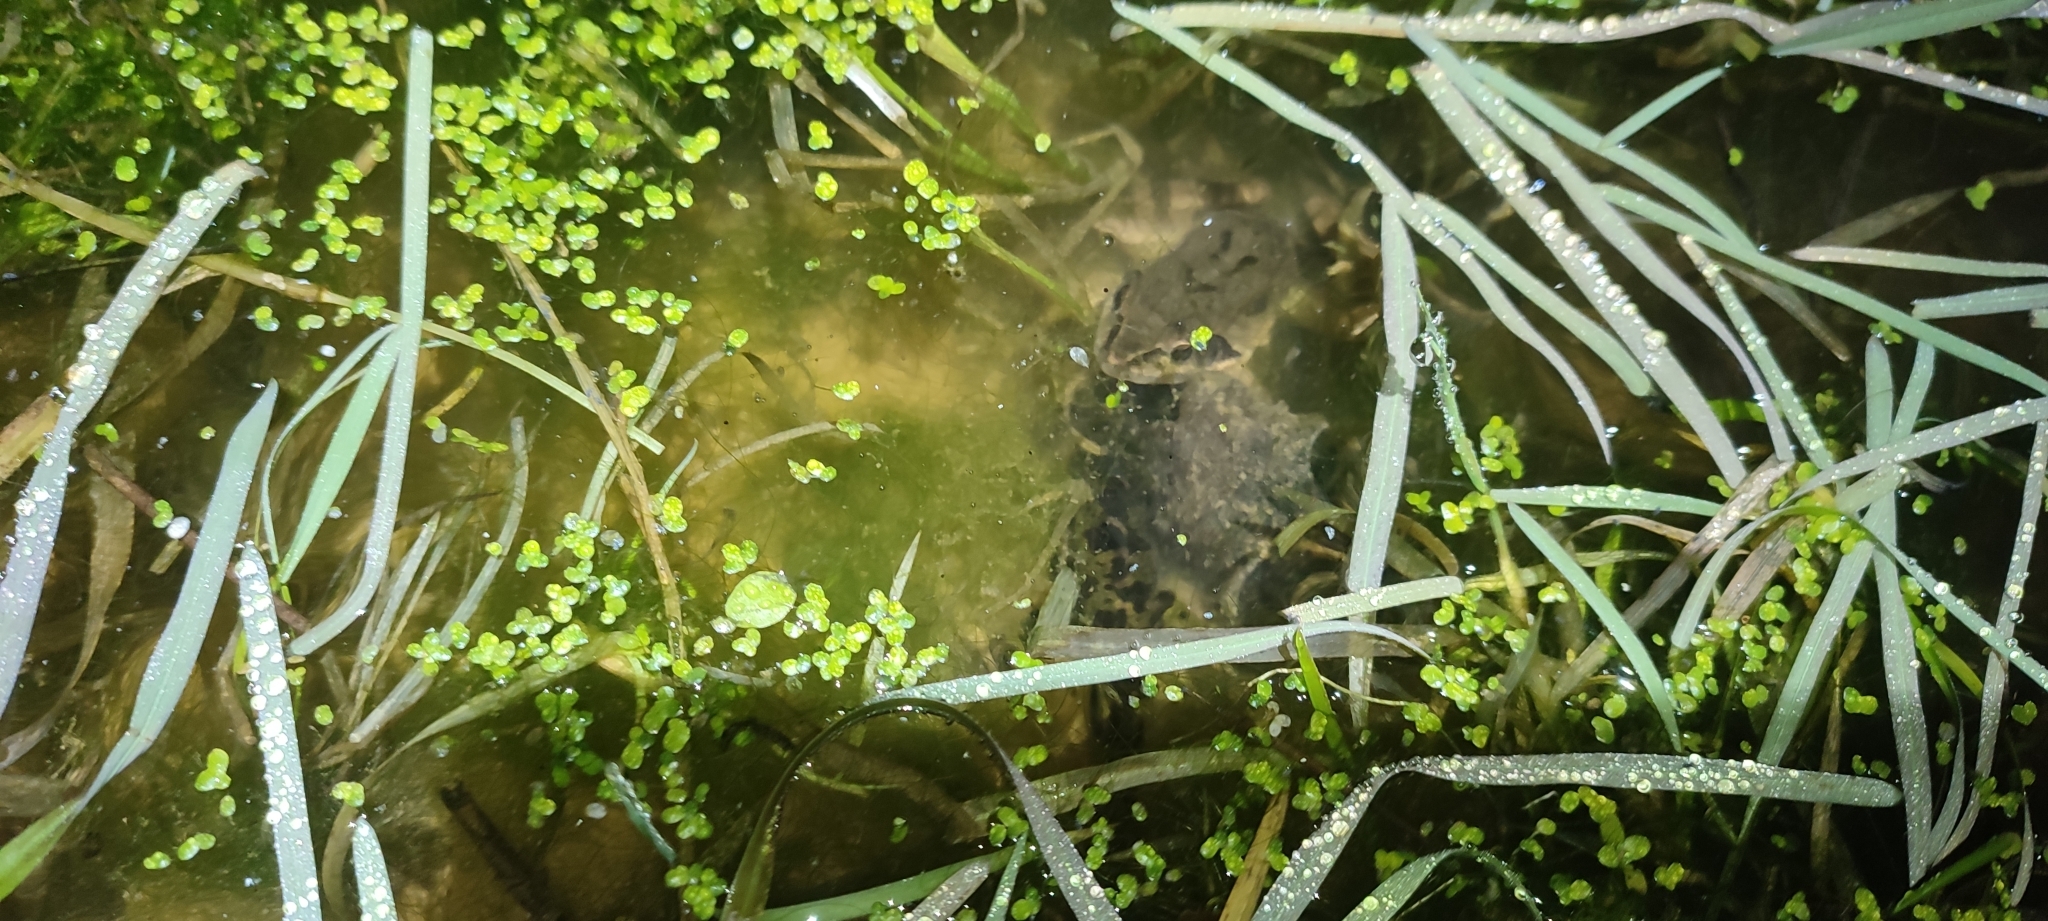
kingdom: Animalia
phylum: Chordata
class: Amphibia
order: Anura
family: Ranidae
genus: Rana
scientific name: Rana dalmatina
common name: Agile frog
